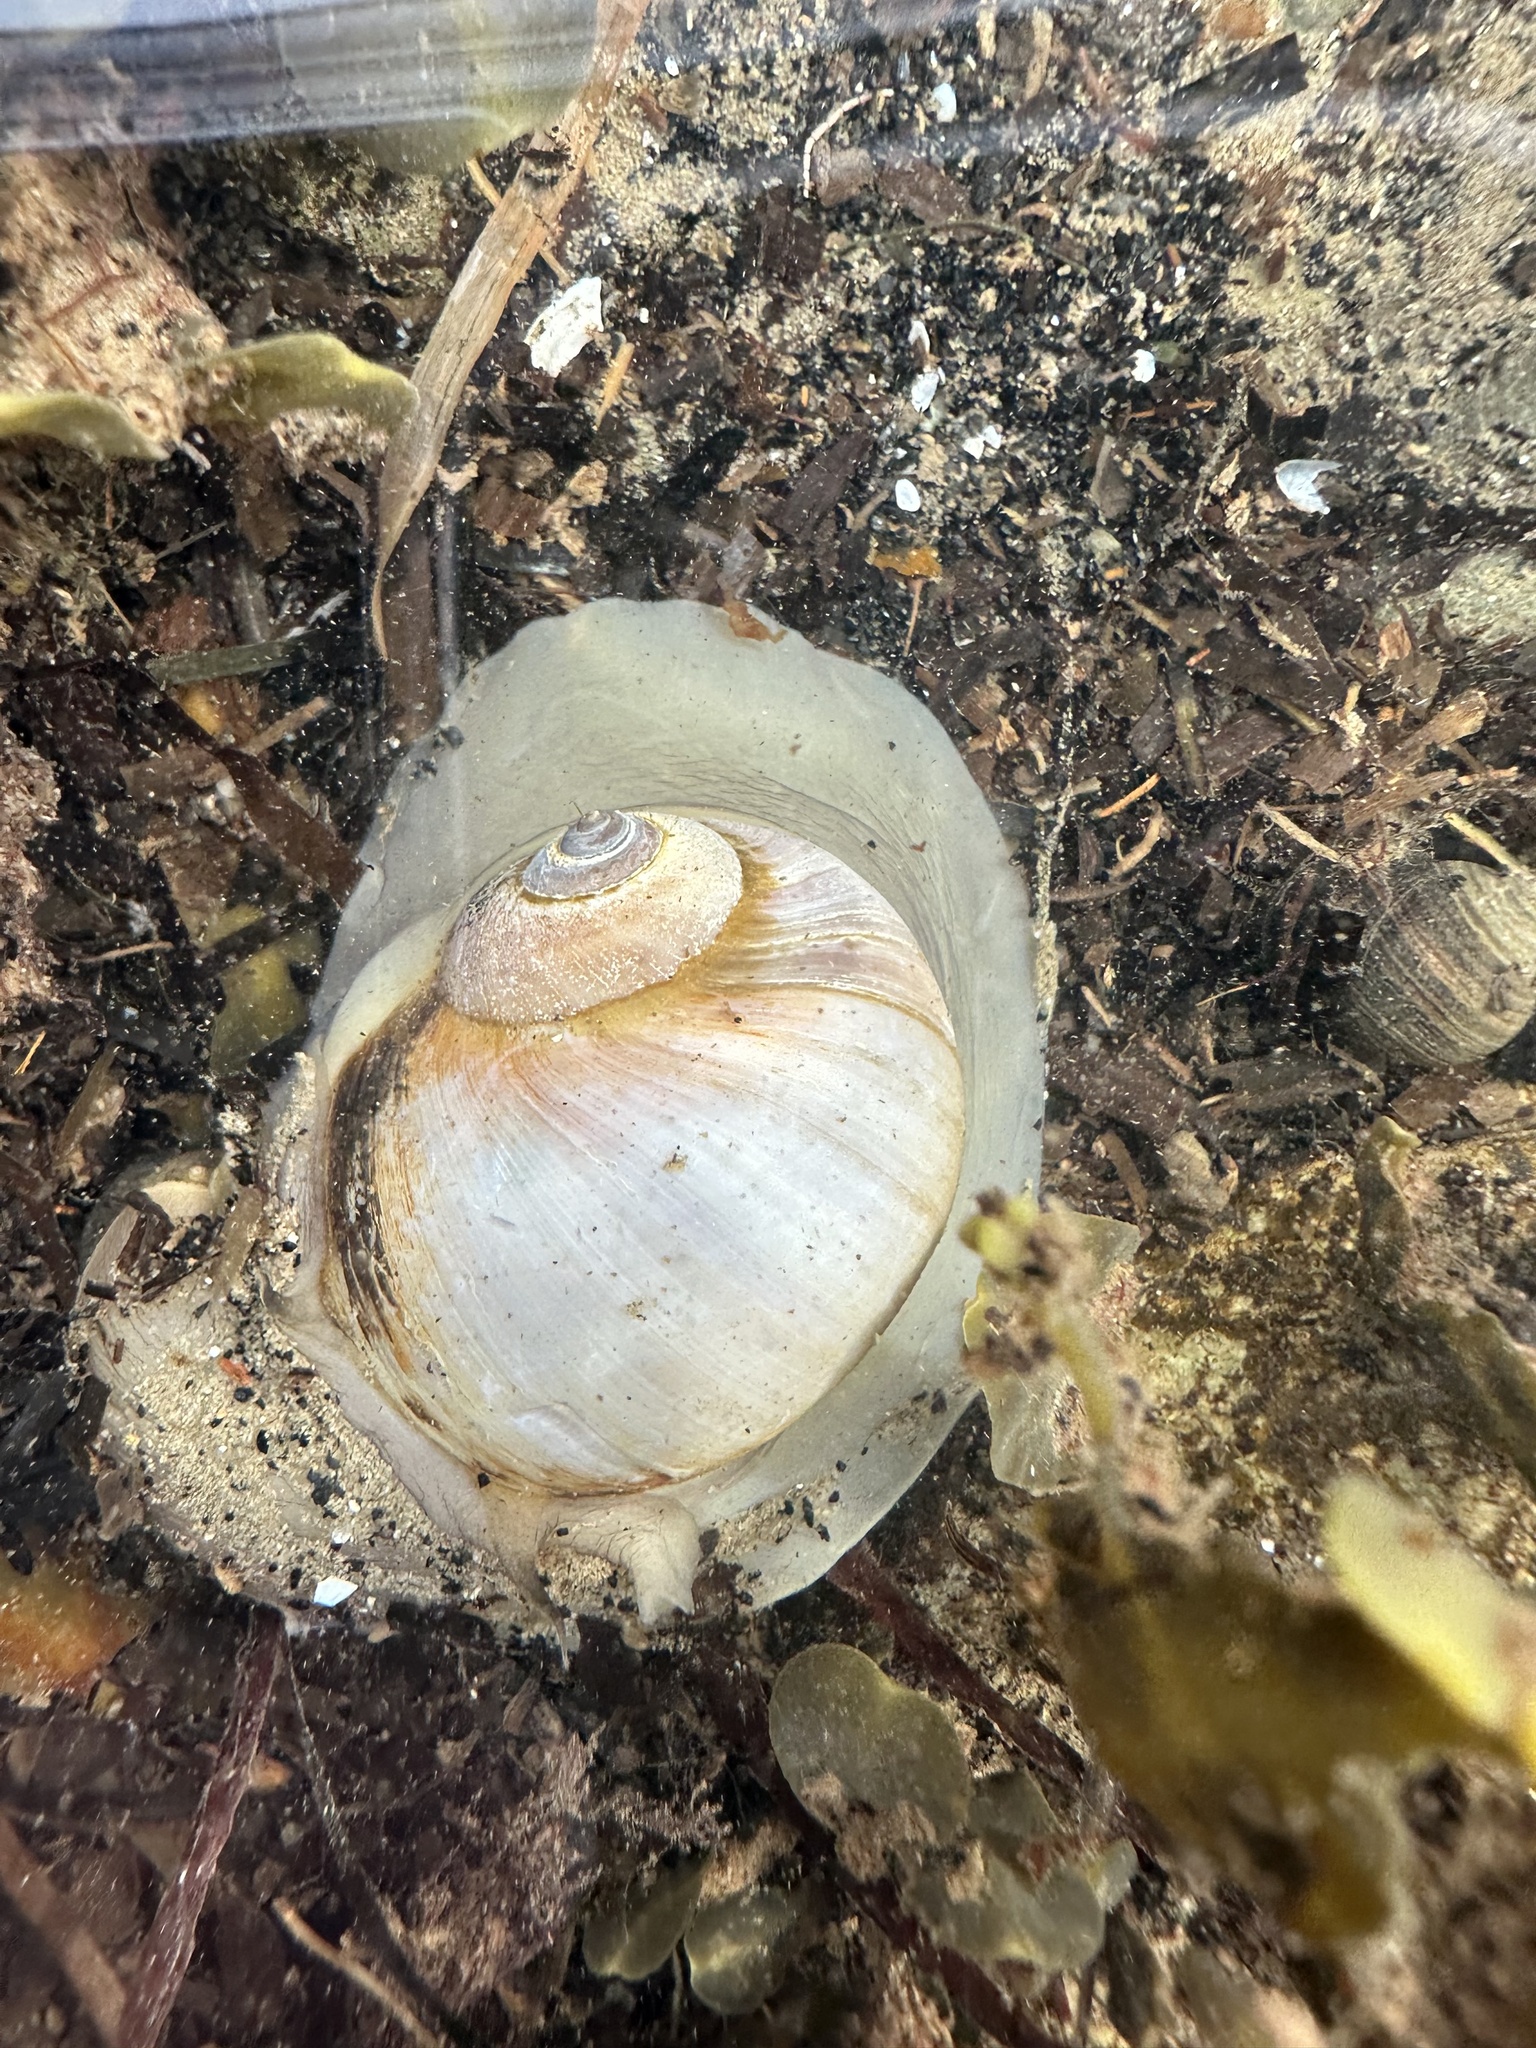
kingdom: Animalia
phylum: Mollusca
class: Gastropoda
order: Littorinimorpha
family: Naticidae
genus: Euspira
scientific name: Euspira heros
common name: Common northern moonsnail
